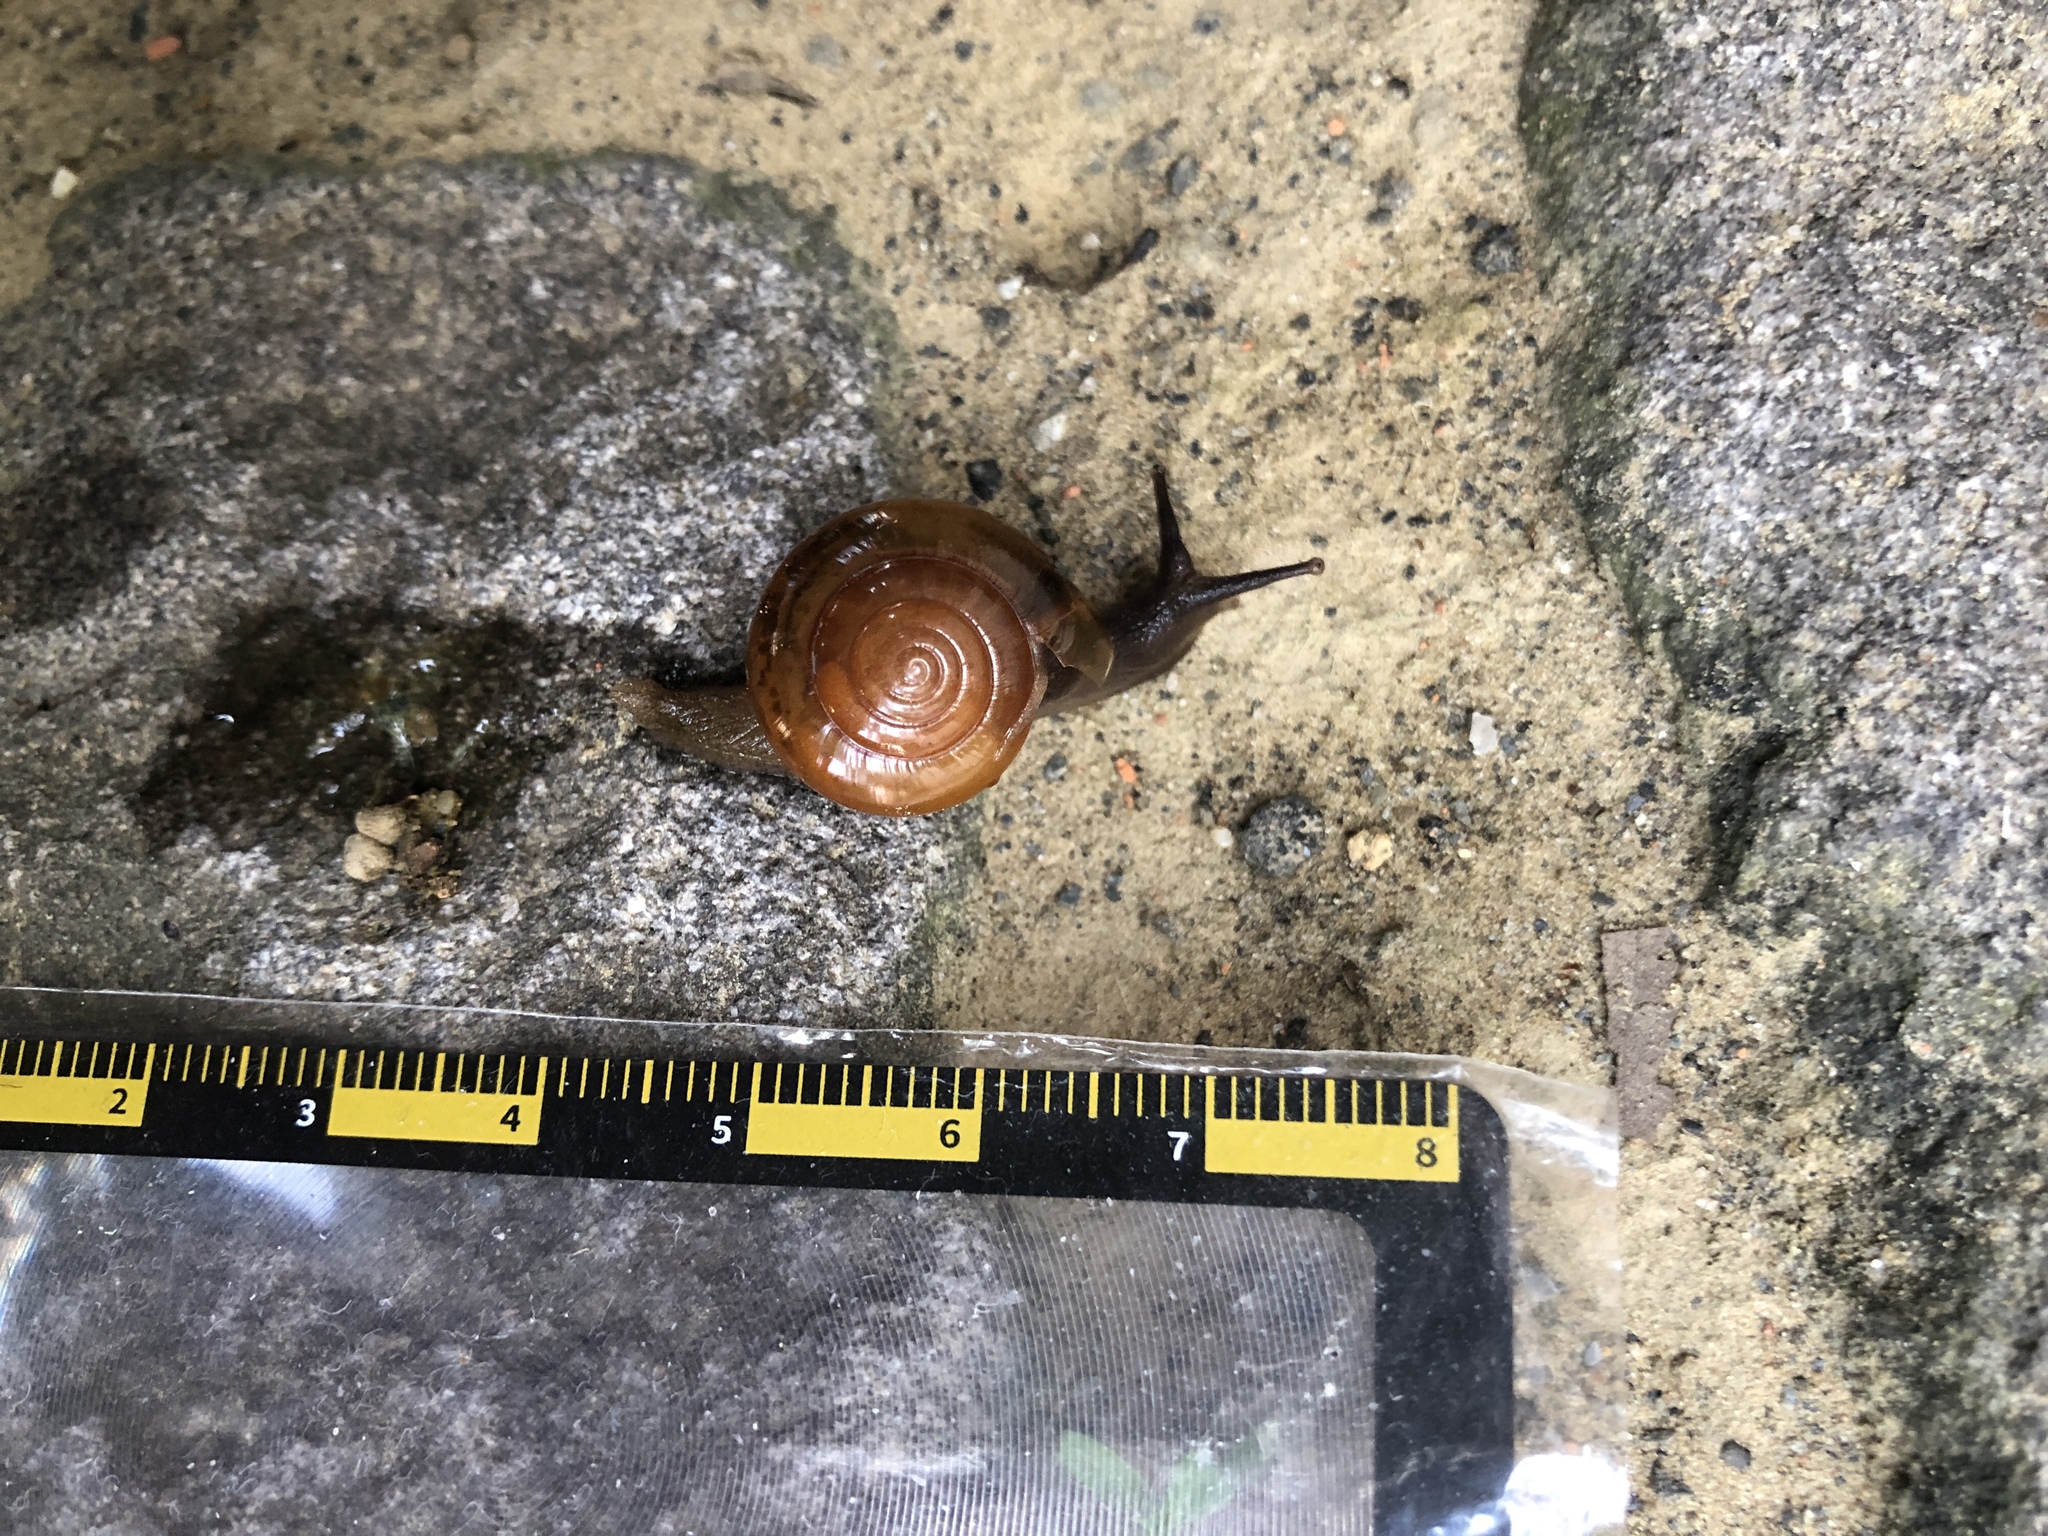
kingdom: Animalia
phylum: Mollusca
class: Gastropoda
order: Stylommatophora
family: Ariophantidae
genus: Macrochlamys
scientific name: Macrochlamys hippocastaneum
